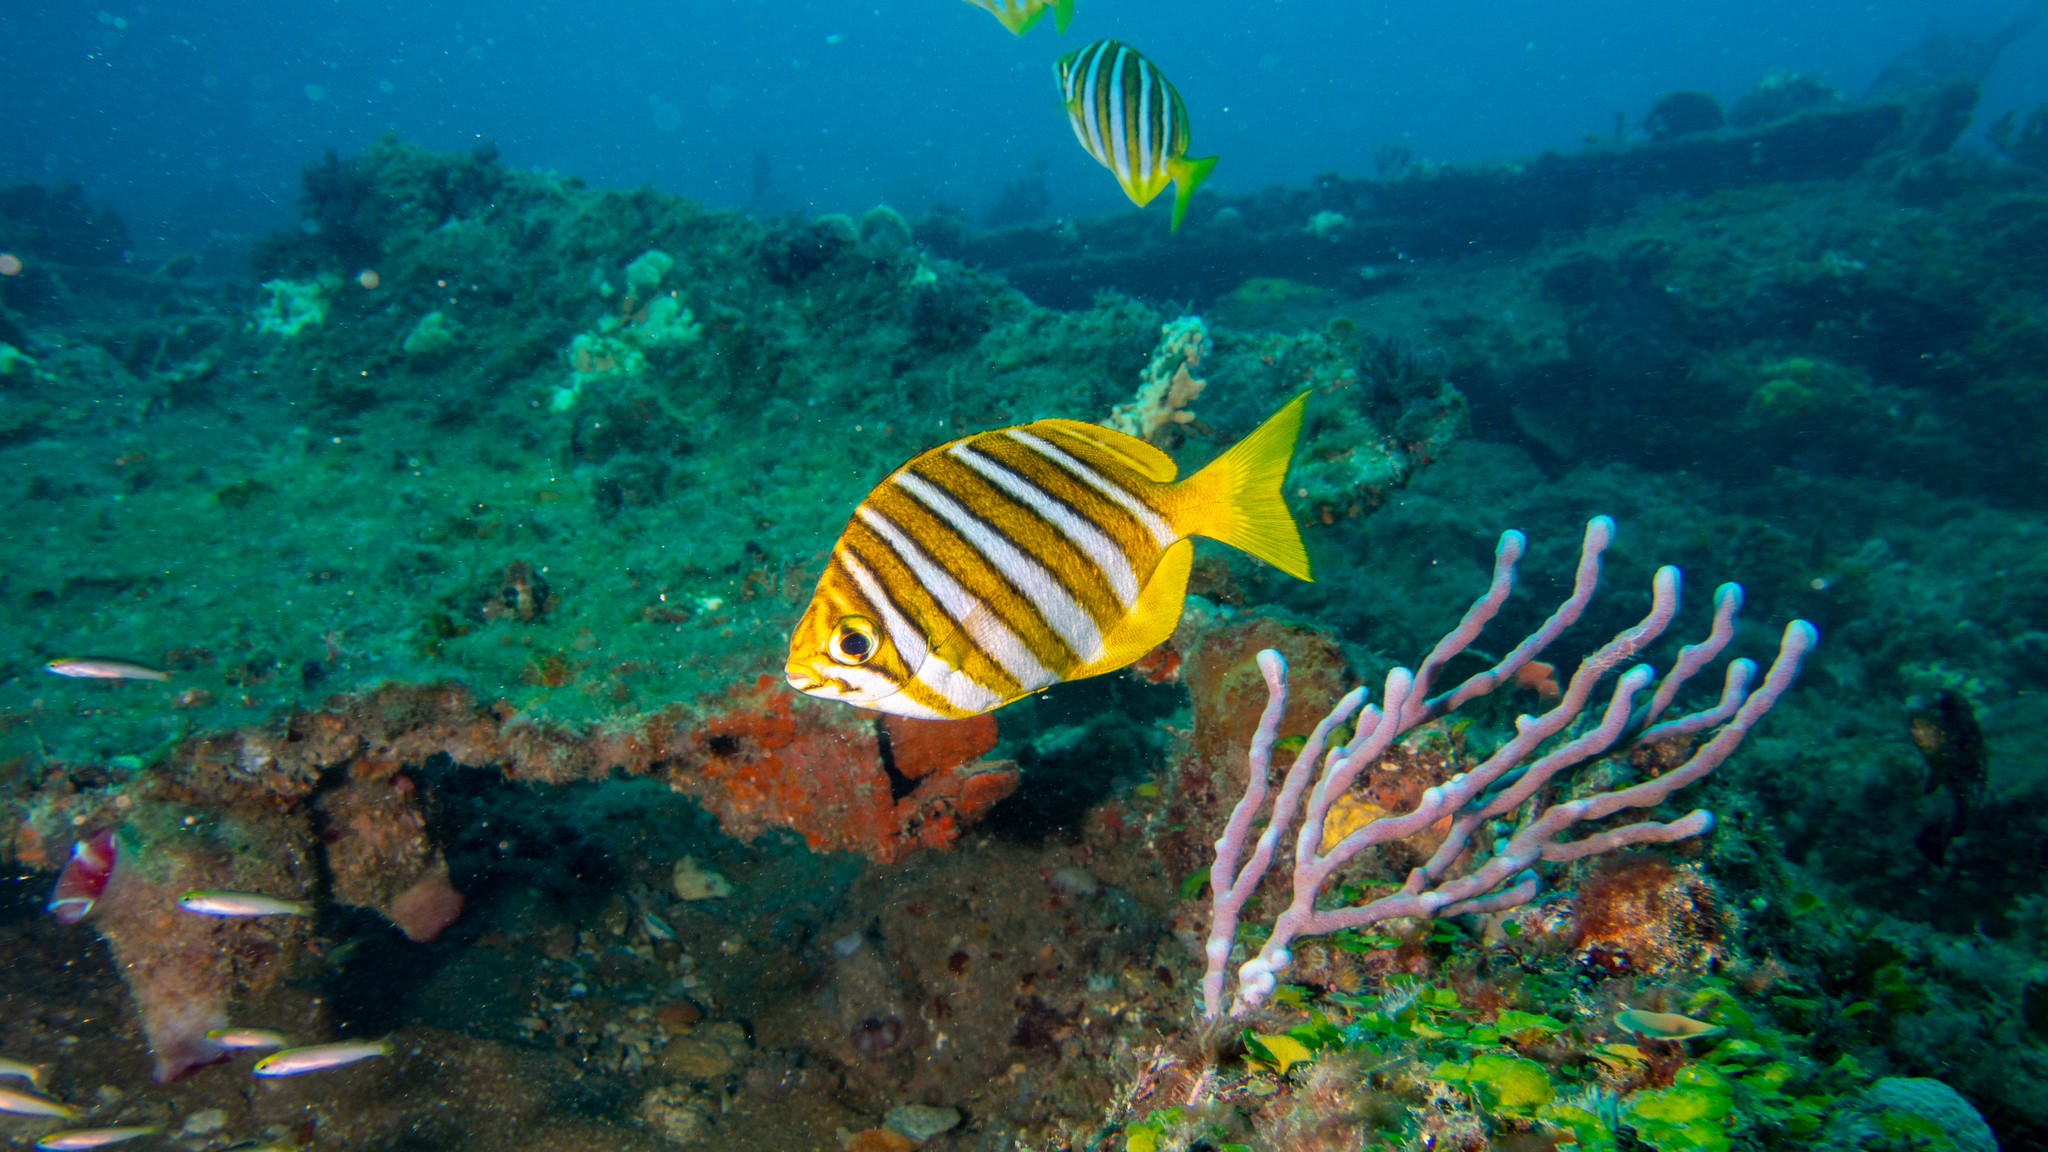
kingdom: Animalia
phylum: Chordata
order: Perciformes
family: Kyphosidae
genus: Neatypus
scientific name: Neatypus obliquus
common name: Western footballer
